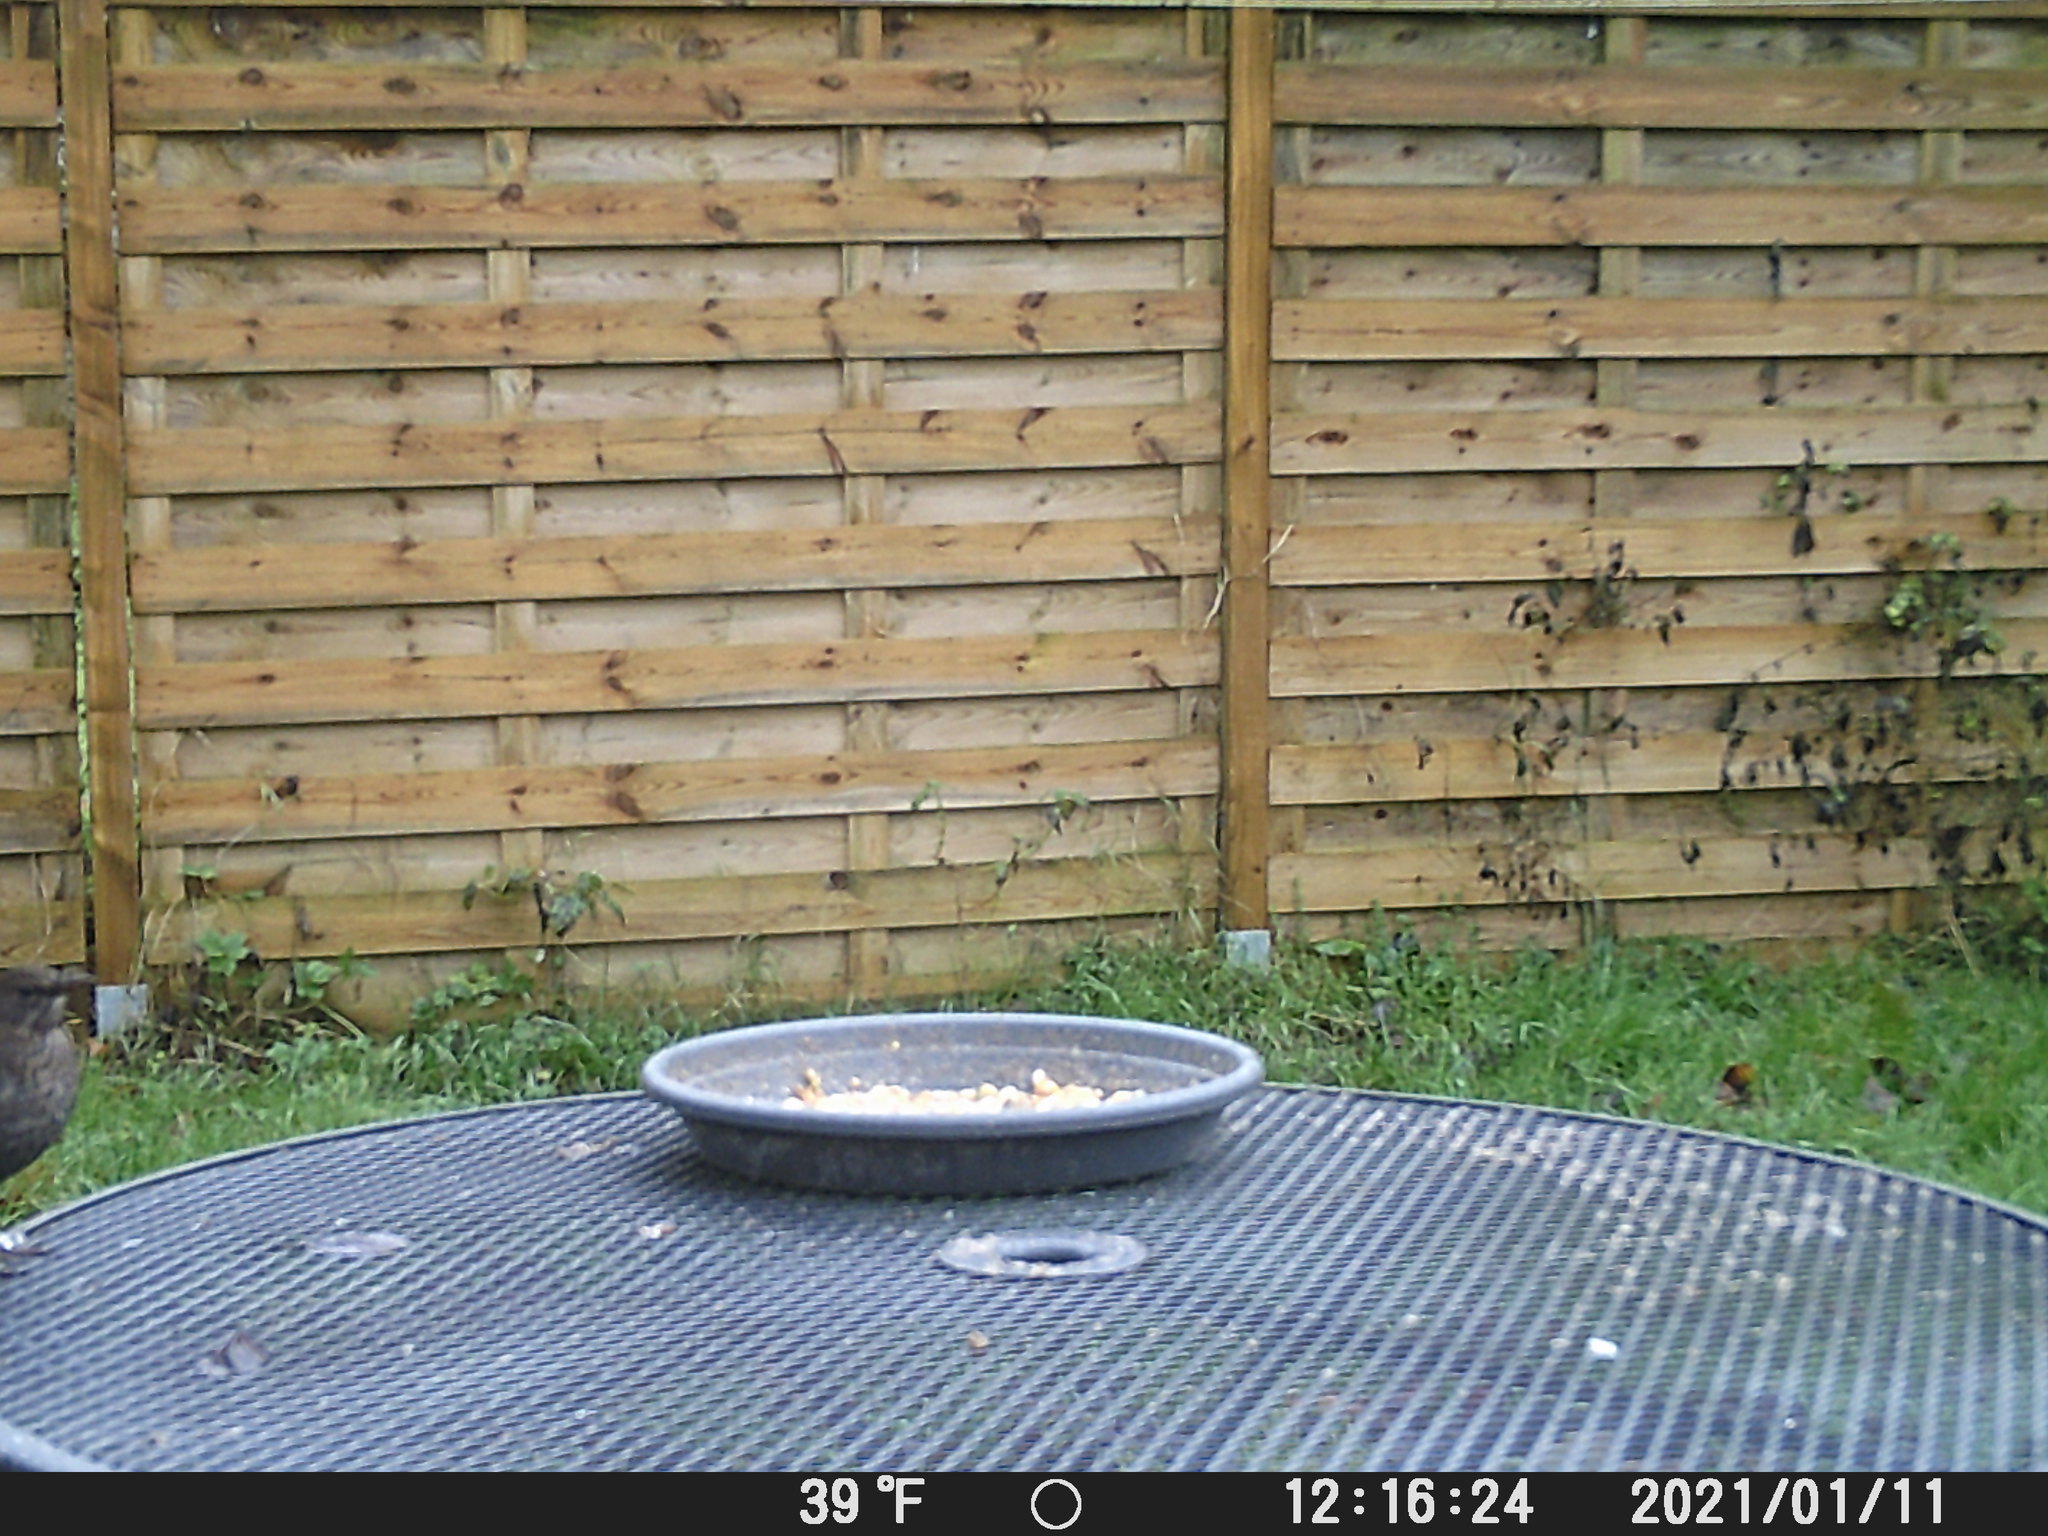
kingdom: Animalia
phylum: Chordata
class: Aves
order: Passeriformes
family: Turdidae
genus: Turdus
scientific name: Turdus merula
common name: Common blackbird
